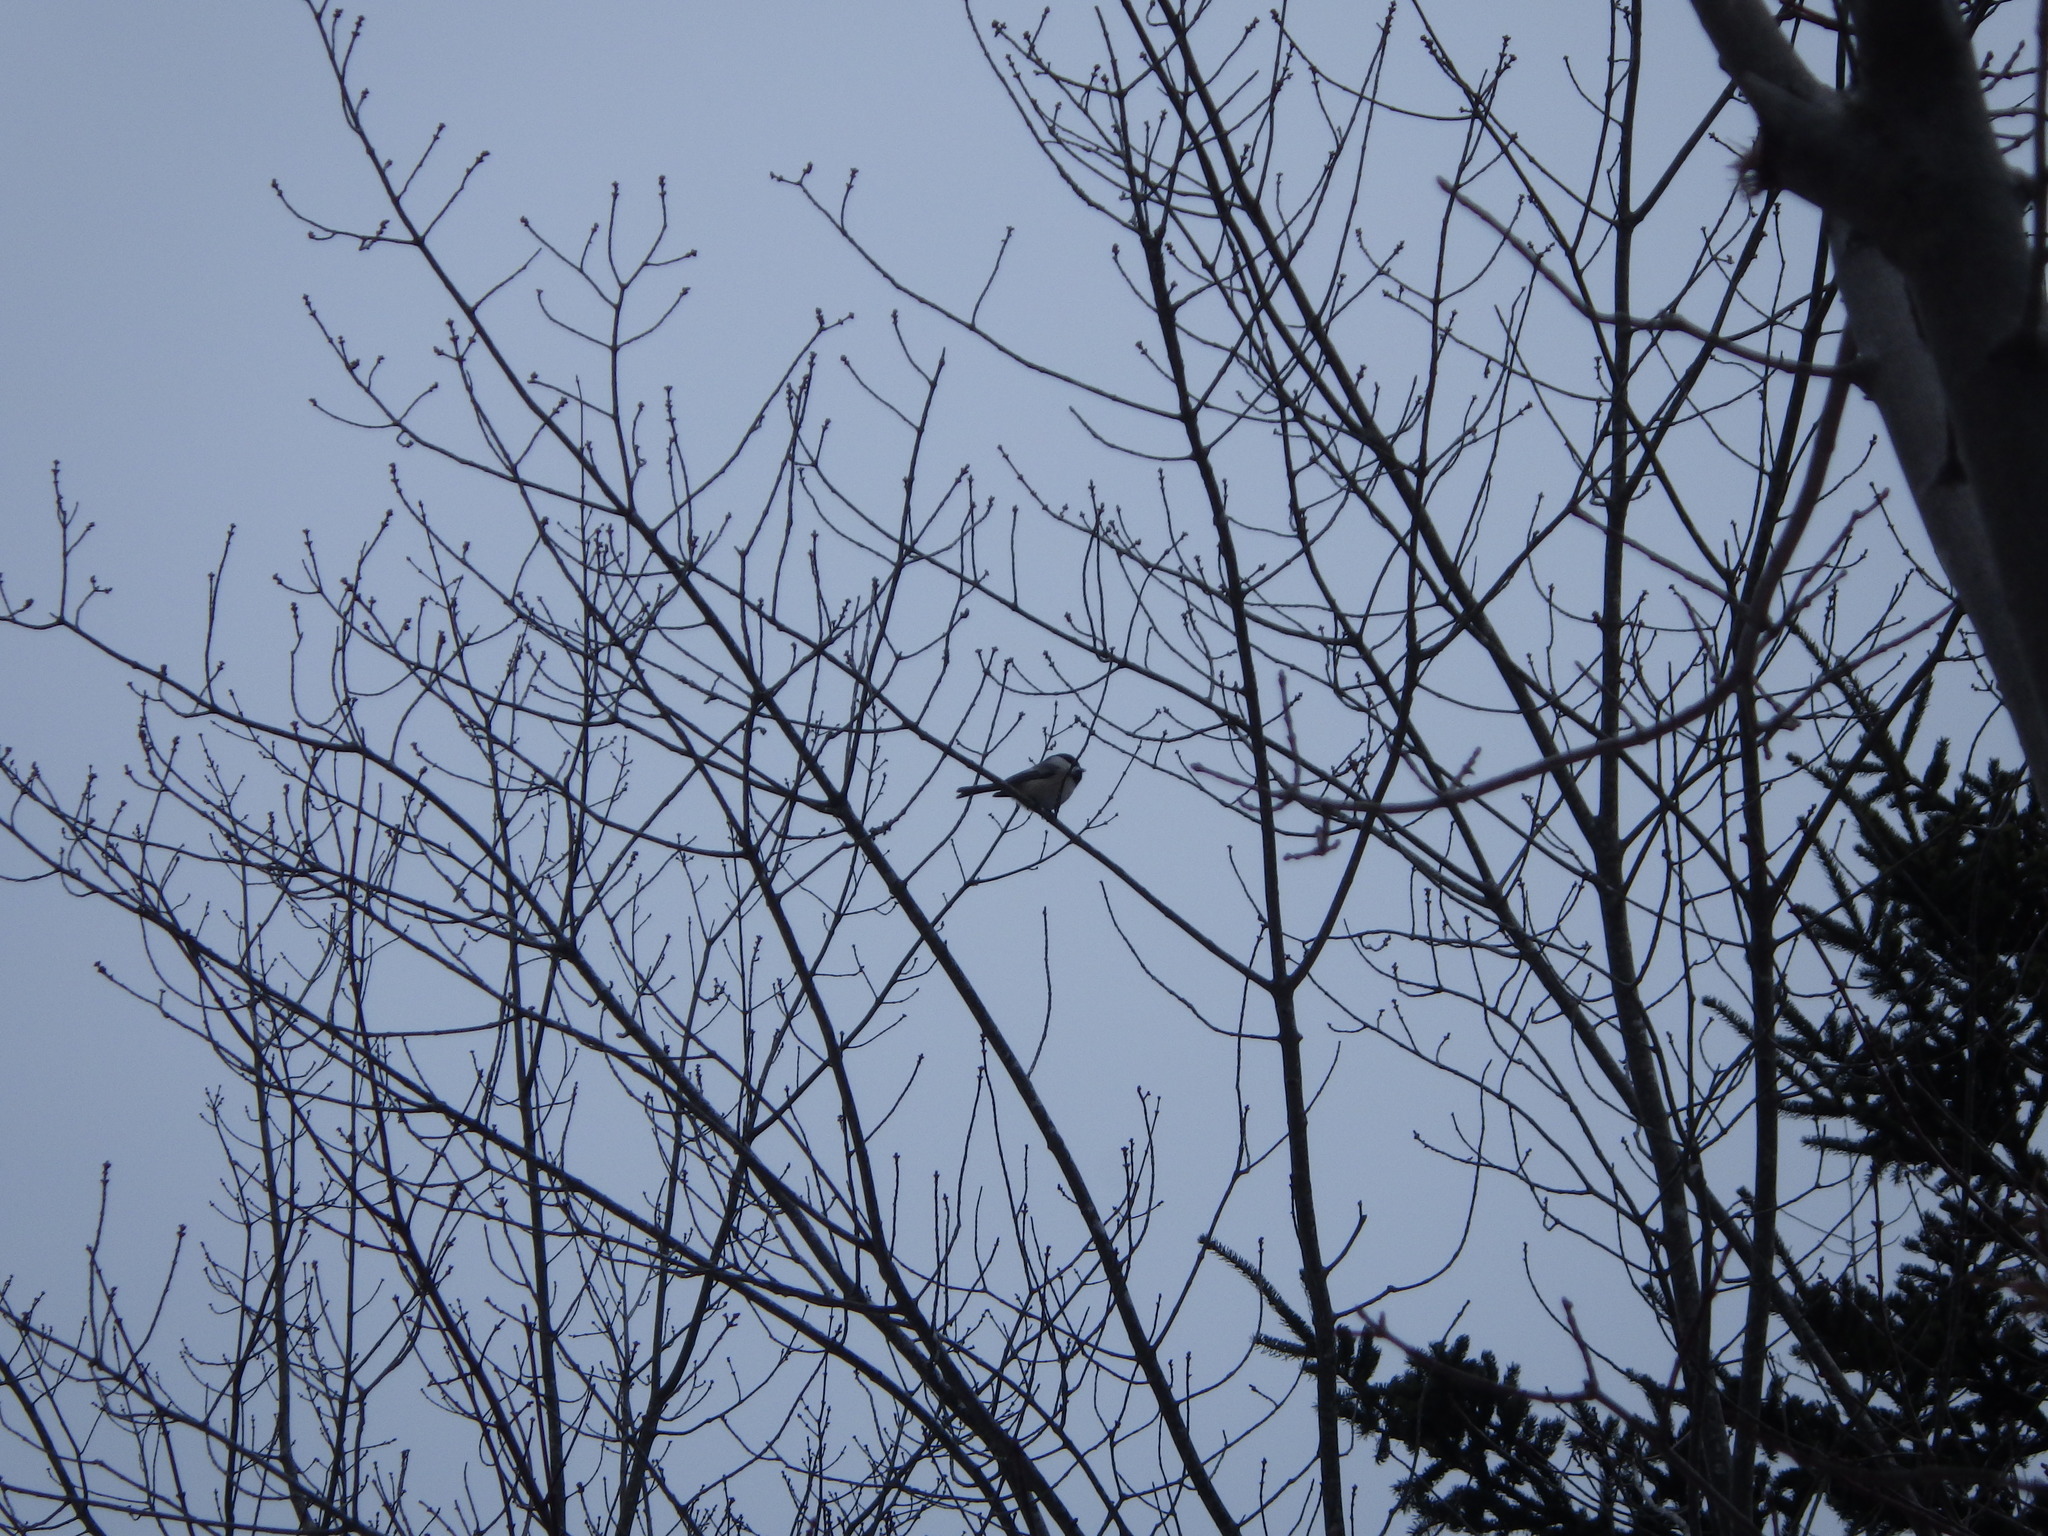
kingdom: Animalia
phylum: Chordata
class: Aves
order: Passeriformes
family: Paridae
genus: Poecile
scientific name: Poecile atricapillus
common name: Black-capped chickadee
